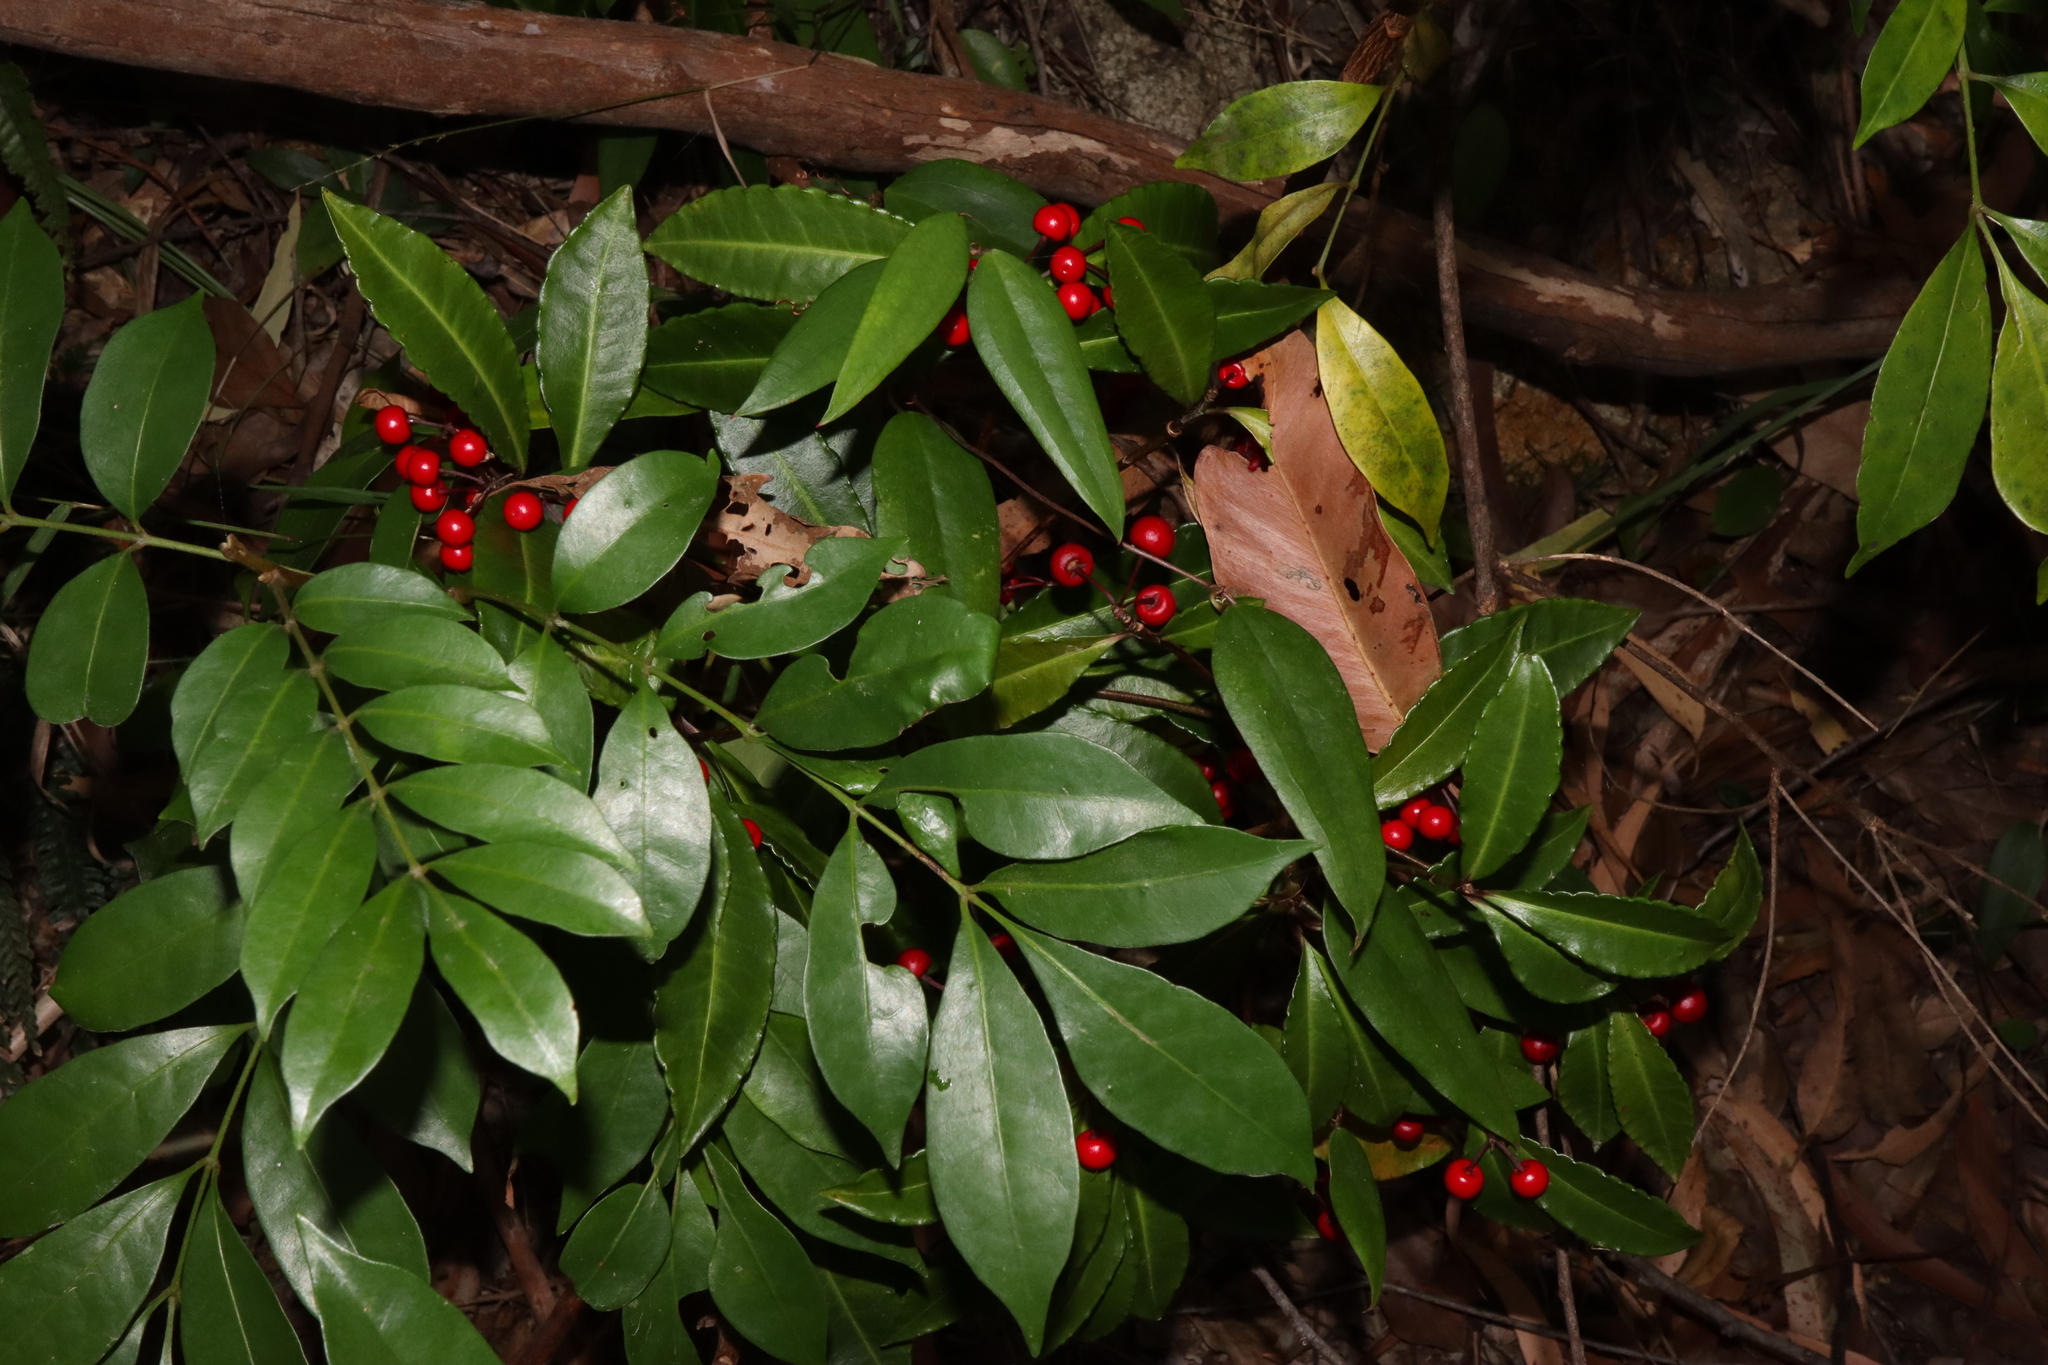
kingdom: Plantae
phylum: Tracheophyta
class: Magnoliopsida
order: Ericales
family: Primulaceae
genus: Ardisia
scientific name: Ardisia crenata
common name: Hen's eyes
